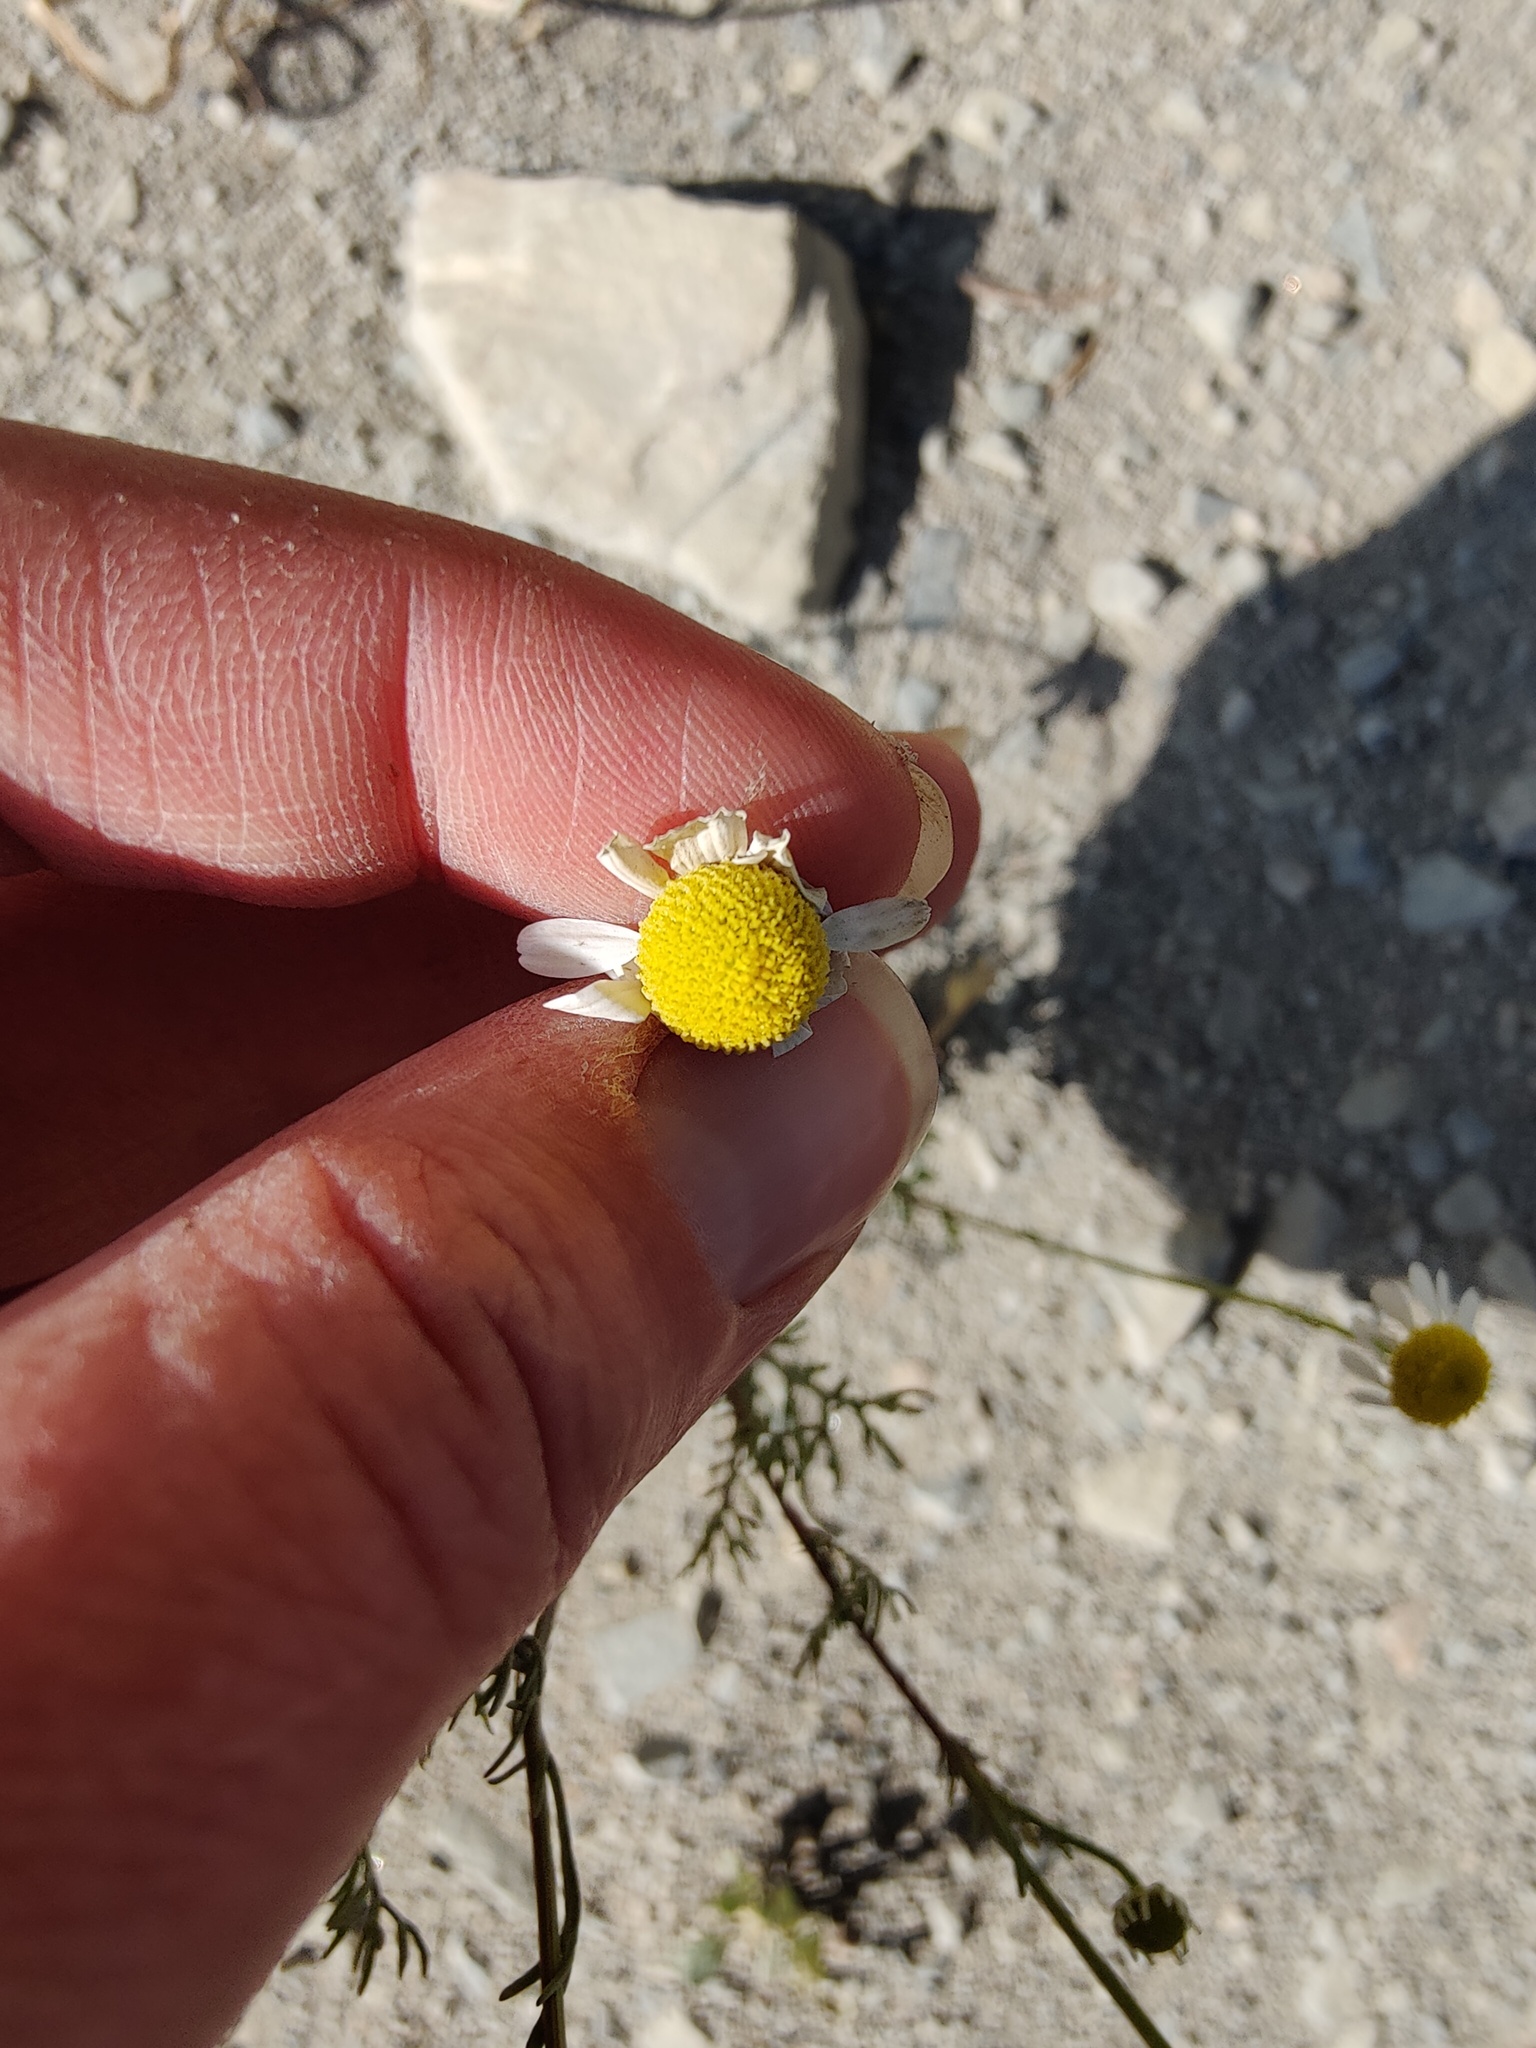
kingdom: Plantae
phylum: Tracheophyta
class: Magnoliopsida
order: Asterales
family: Asteraceae
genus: Matricaria
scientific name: Matricaria chamomilla
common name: Scented mayweed
